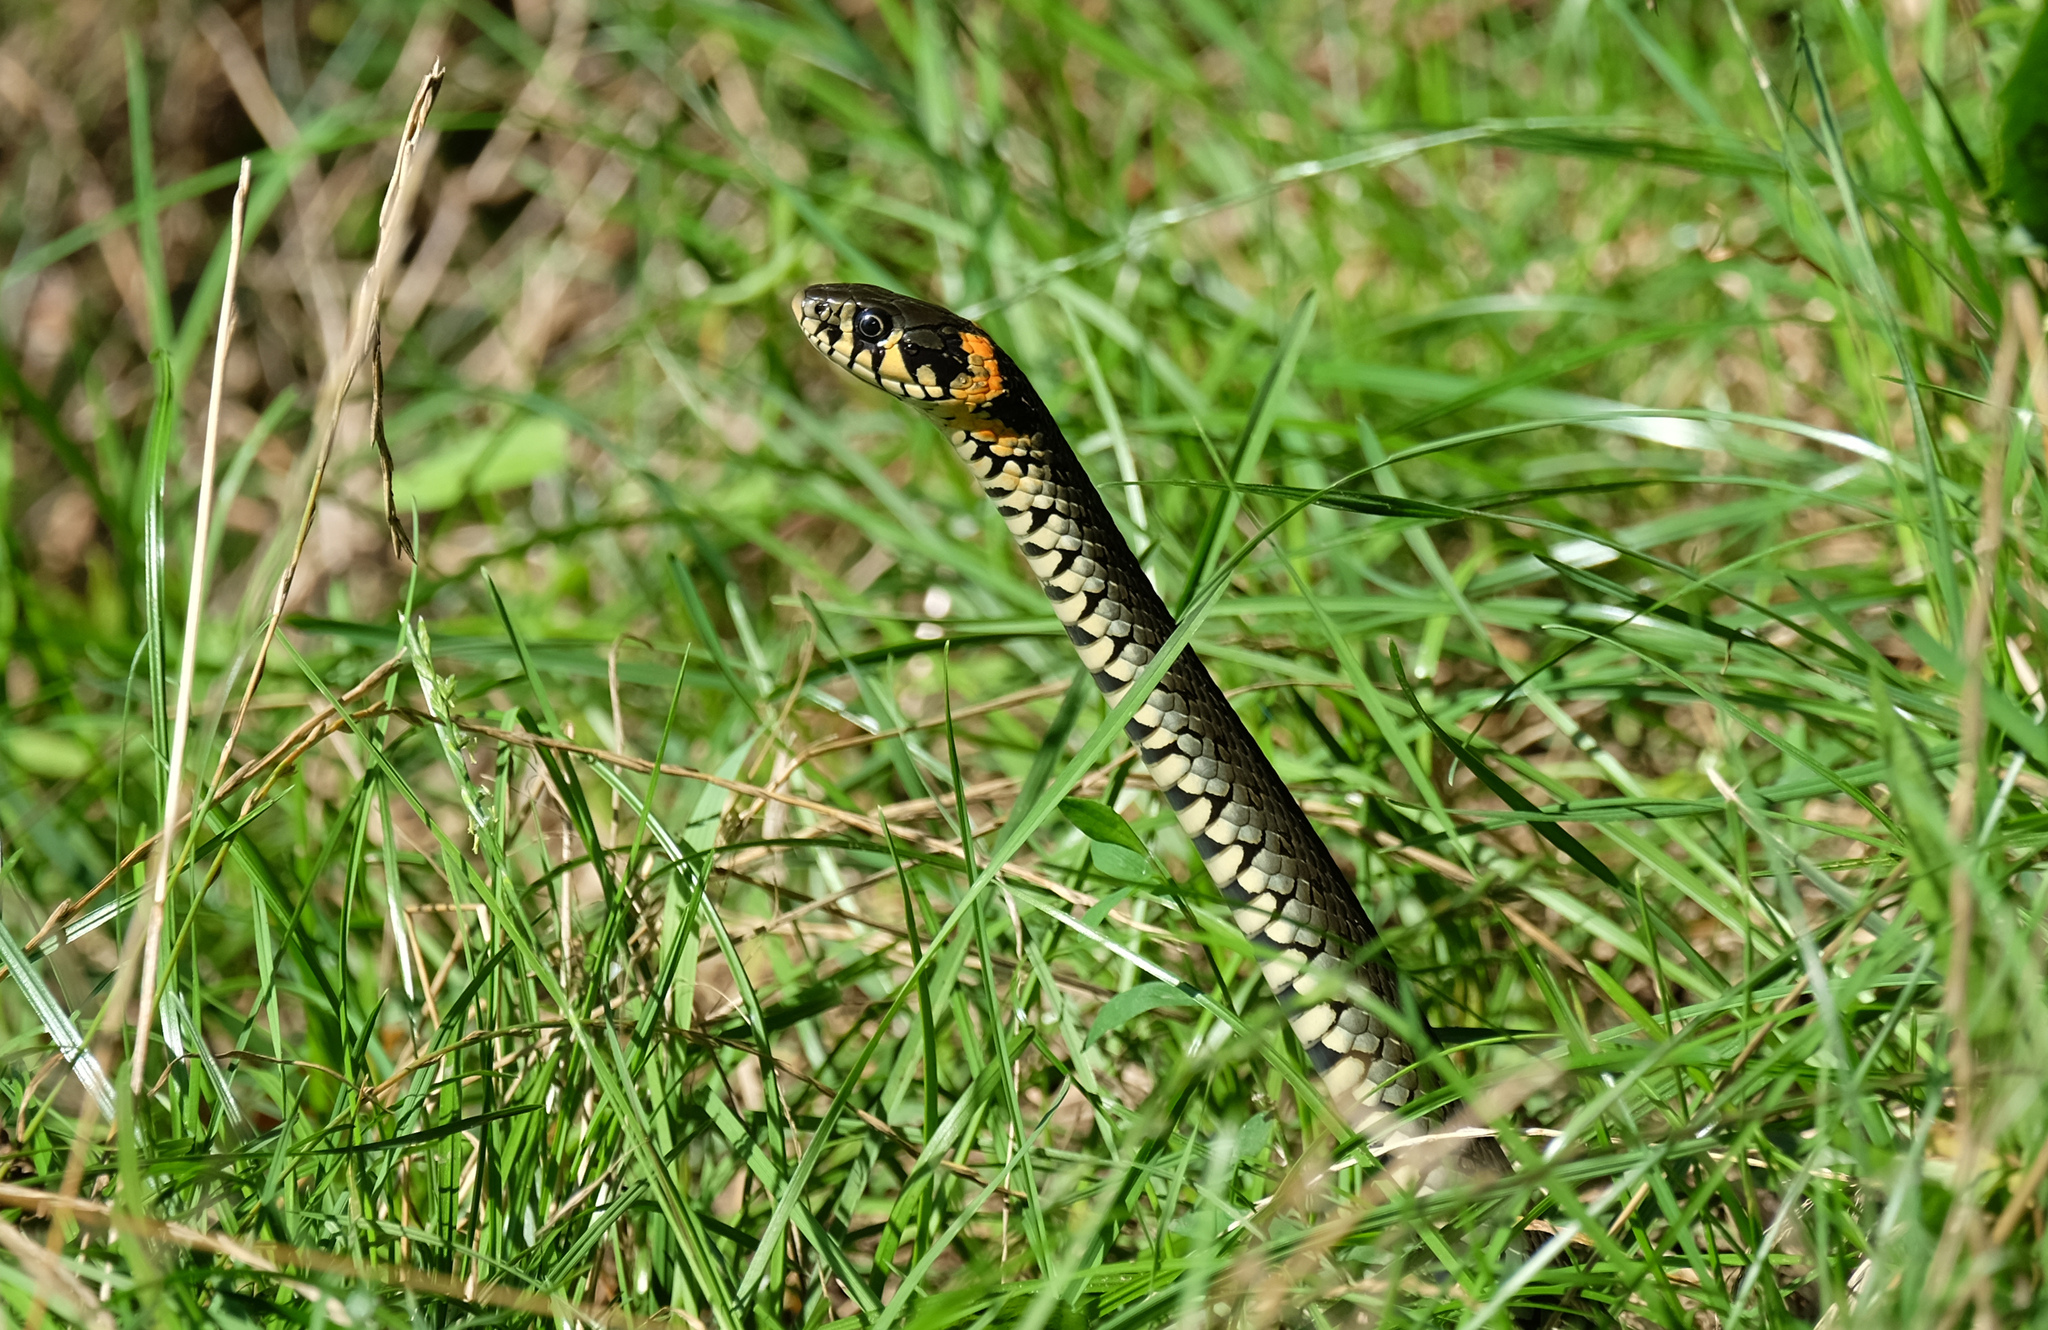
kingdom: Animalia
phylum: Chordata
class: Squamata
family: Colubridae
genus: Natrix
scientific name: Natrix natrix
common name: Grass snake
